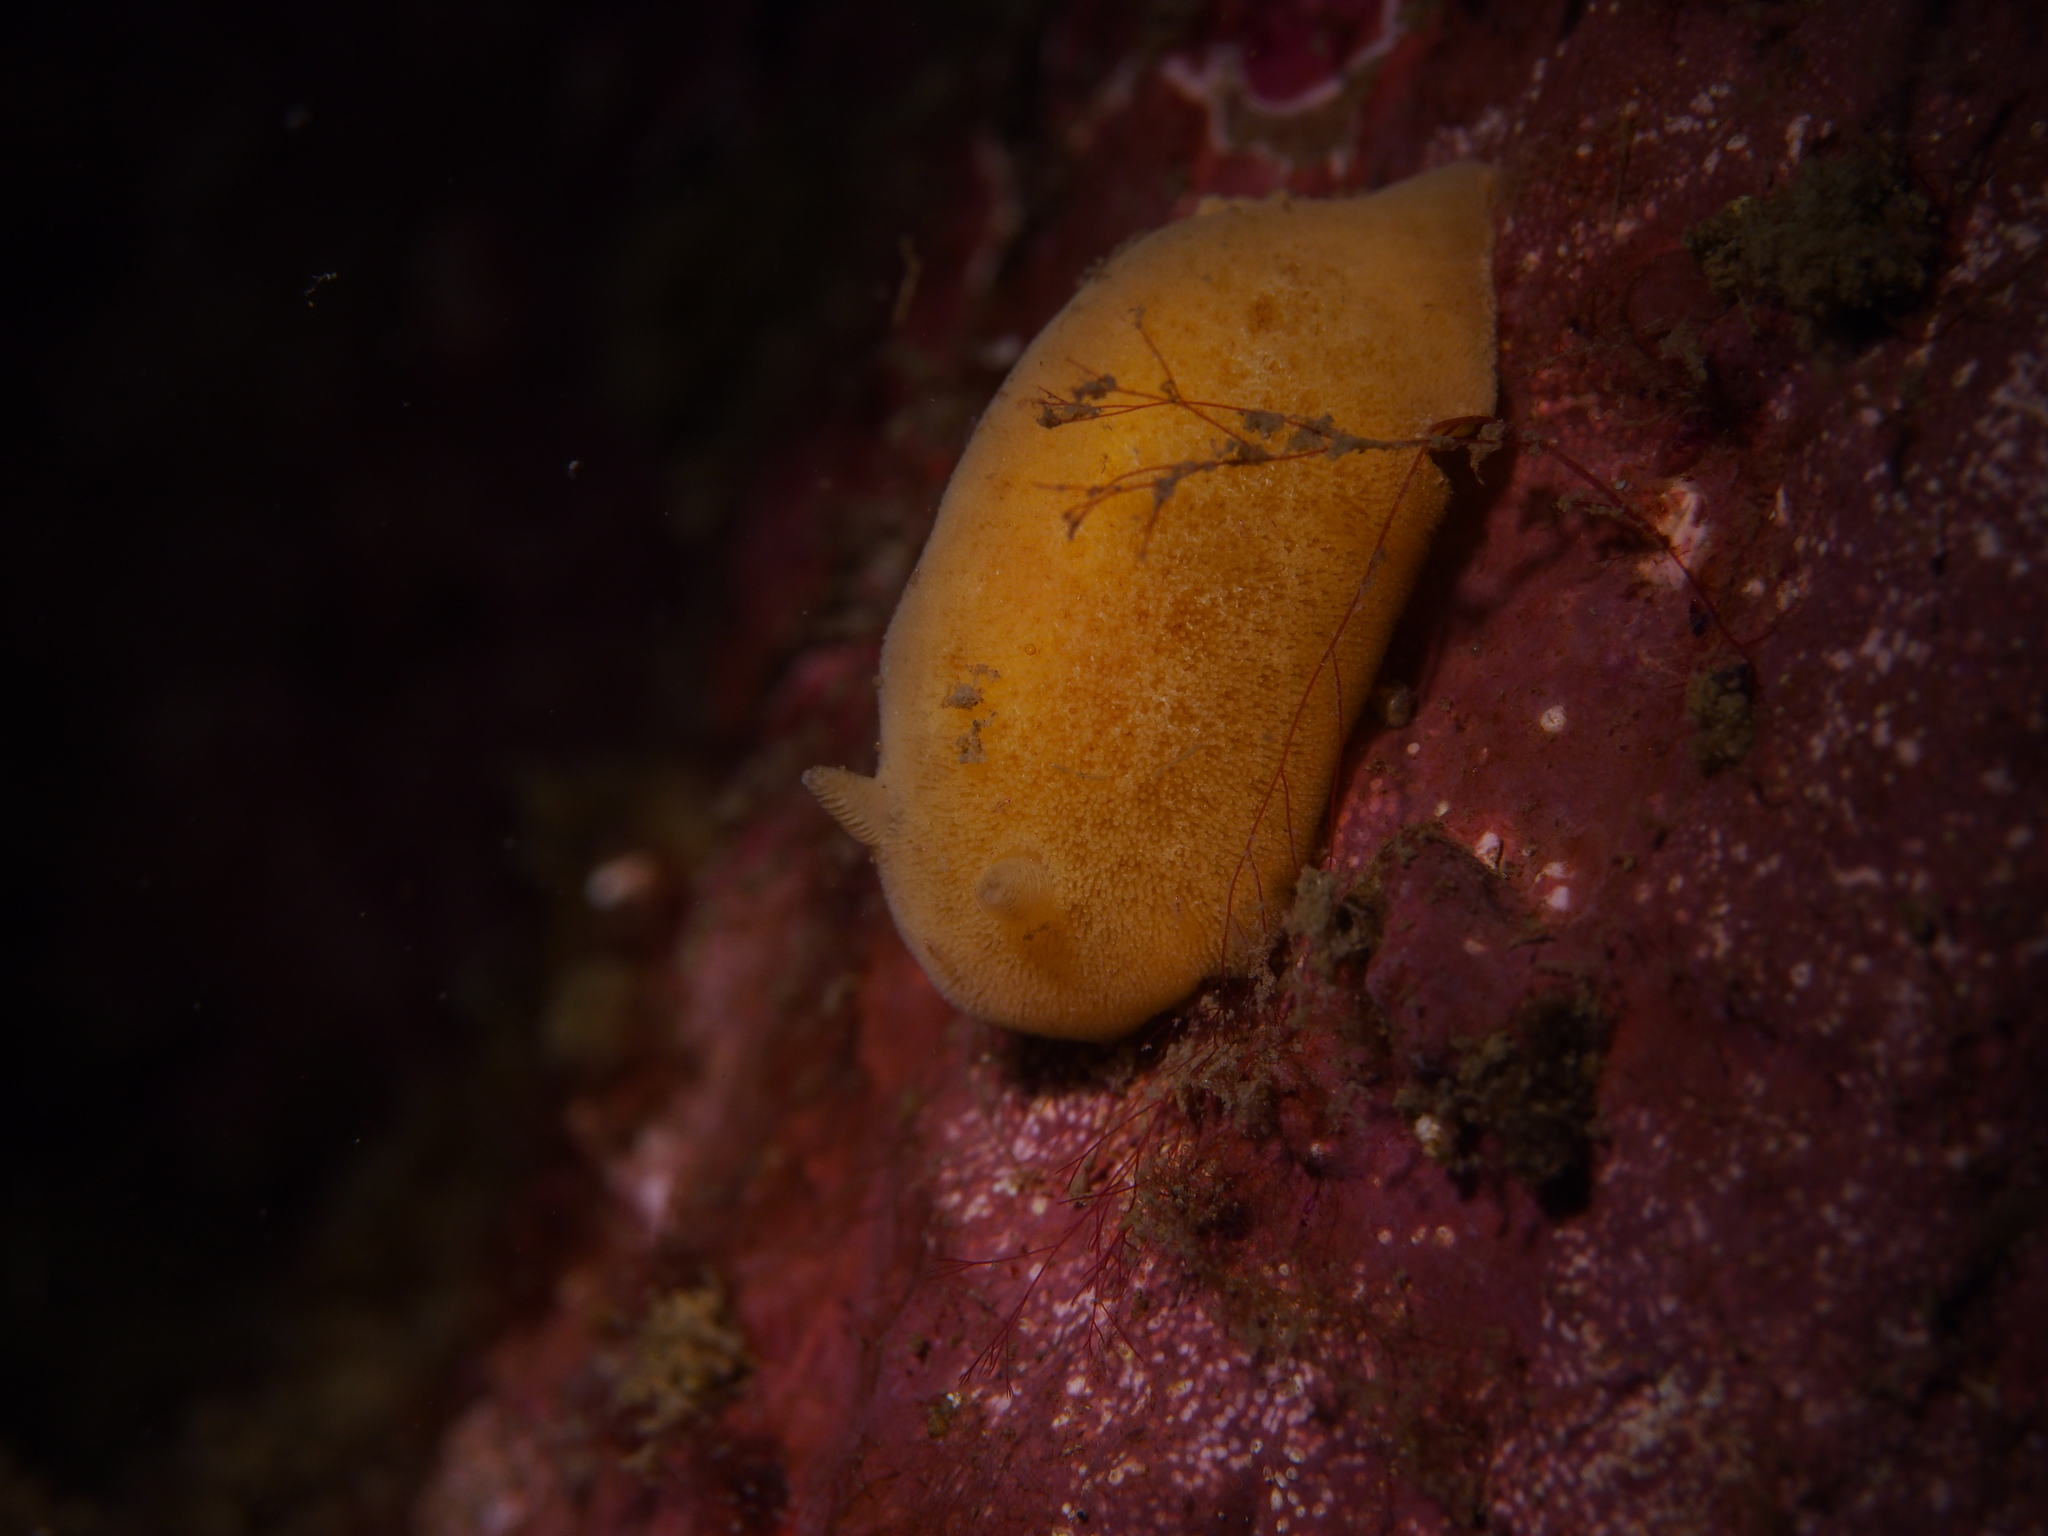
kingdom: Animalia
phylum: Mollusca
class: Gastropoda
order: Nudibranchia
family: Discodorididae
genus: Jorunna
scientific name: Jorunna tomentosa
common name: Grey sea slug
